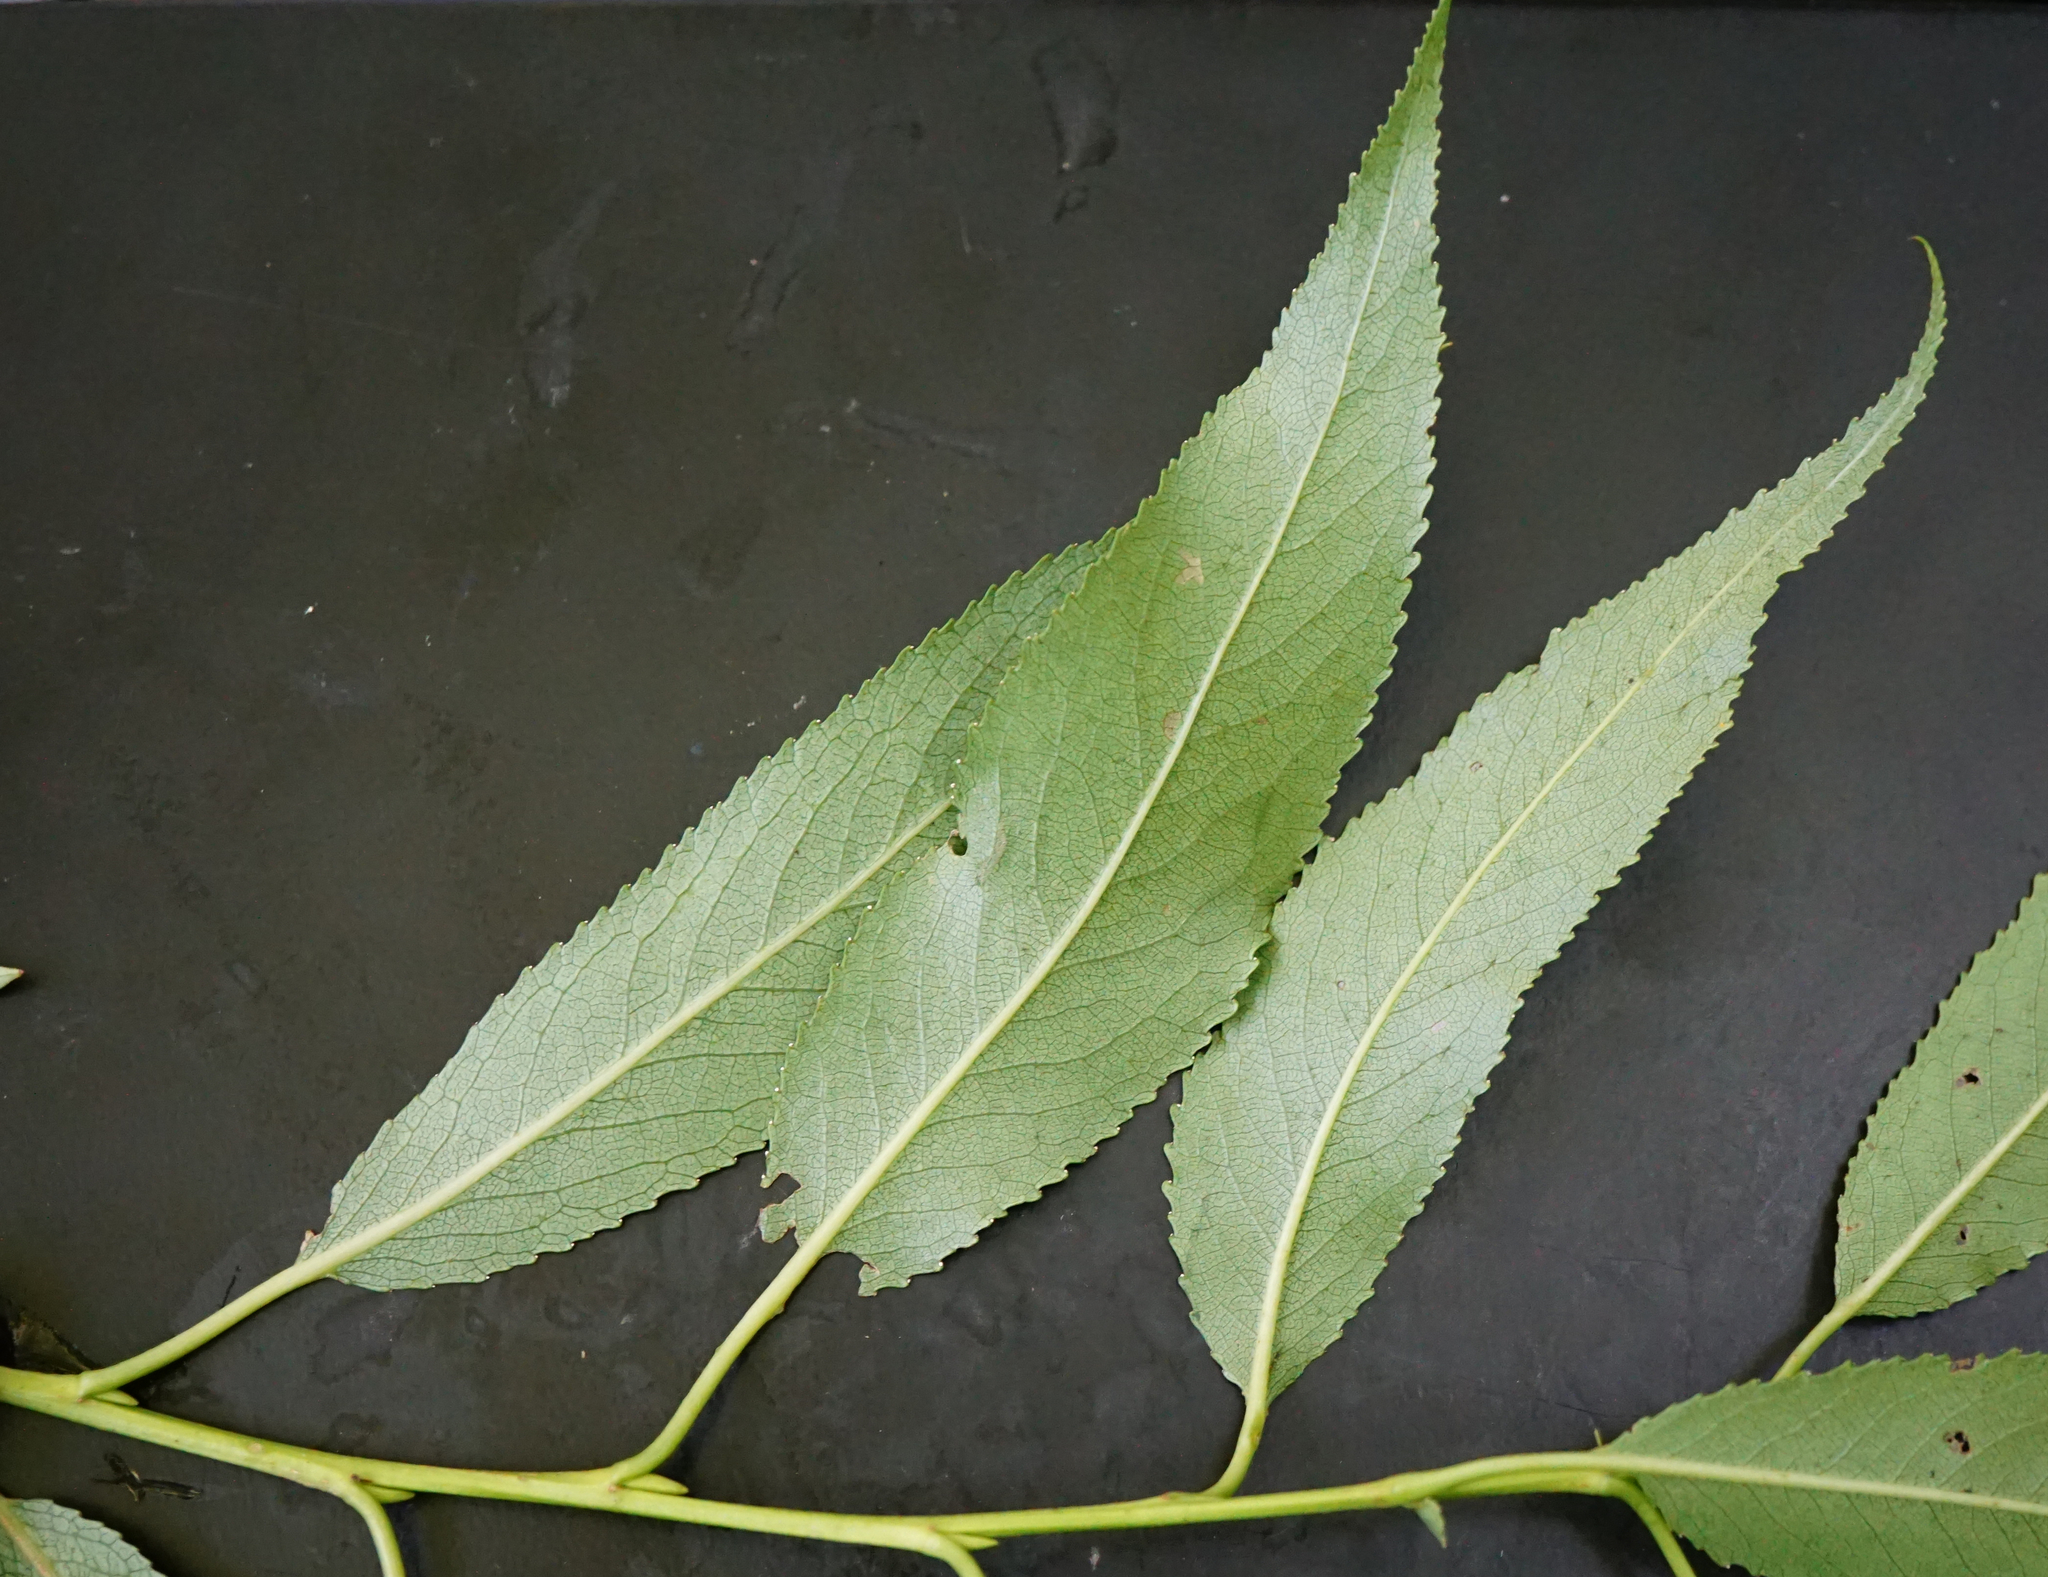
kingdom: Plantae
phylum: Tracheophyta
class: Magnoliopsida
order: Malpighiales
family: Salicaceae
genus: Salix
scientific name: Salix fragilis
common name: Crack willow
